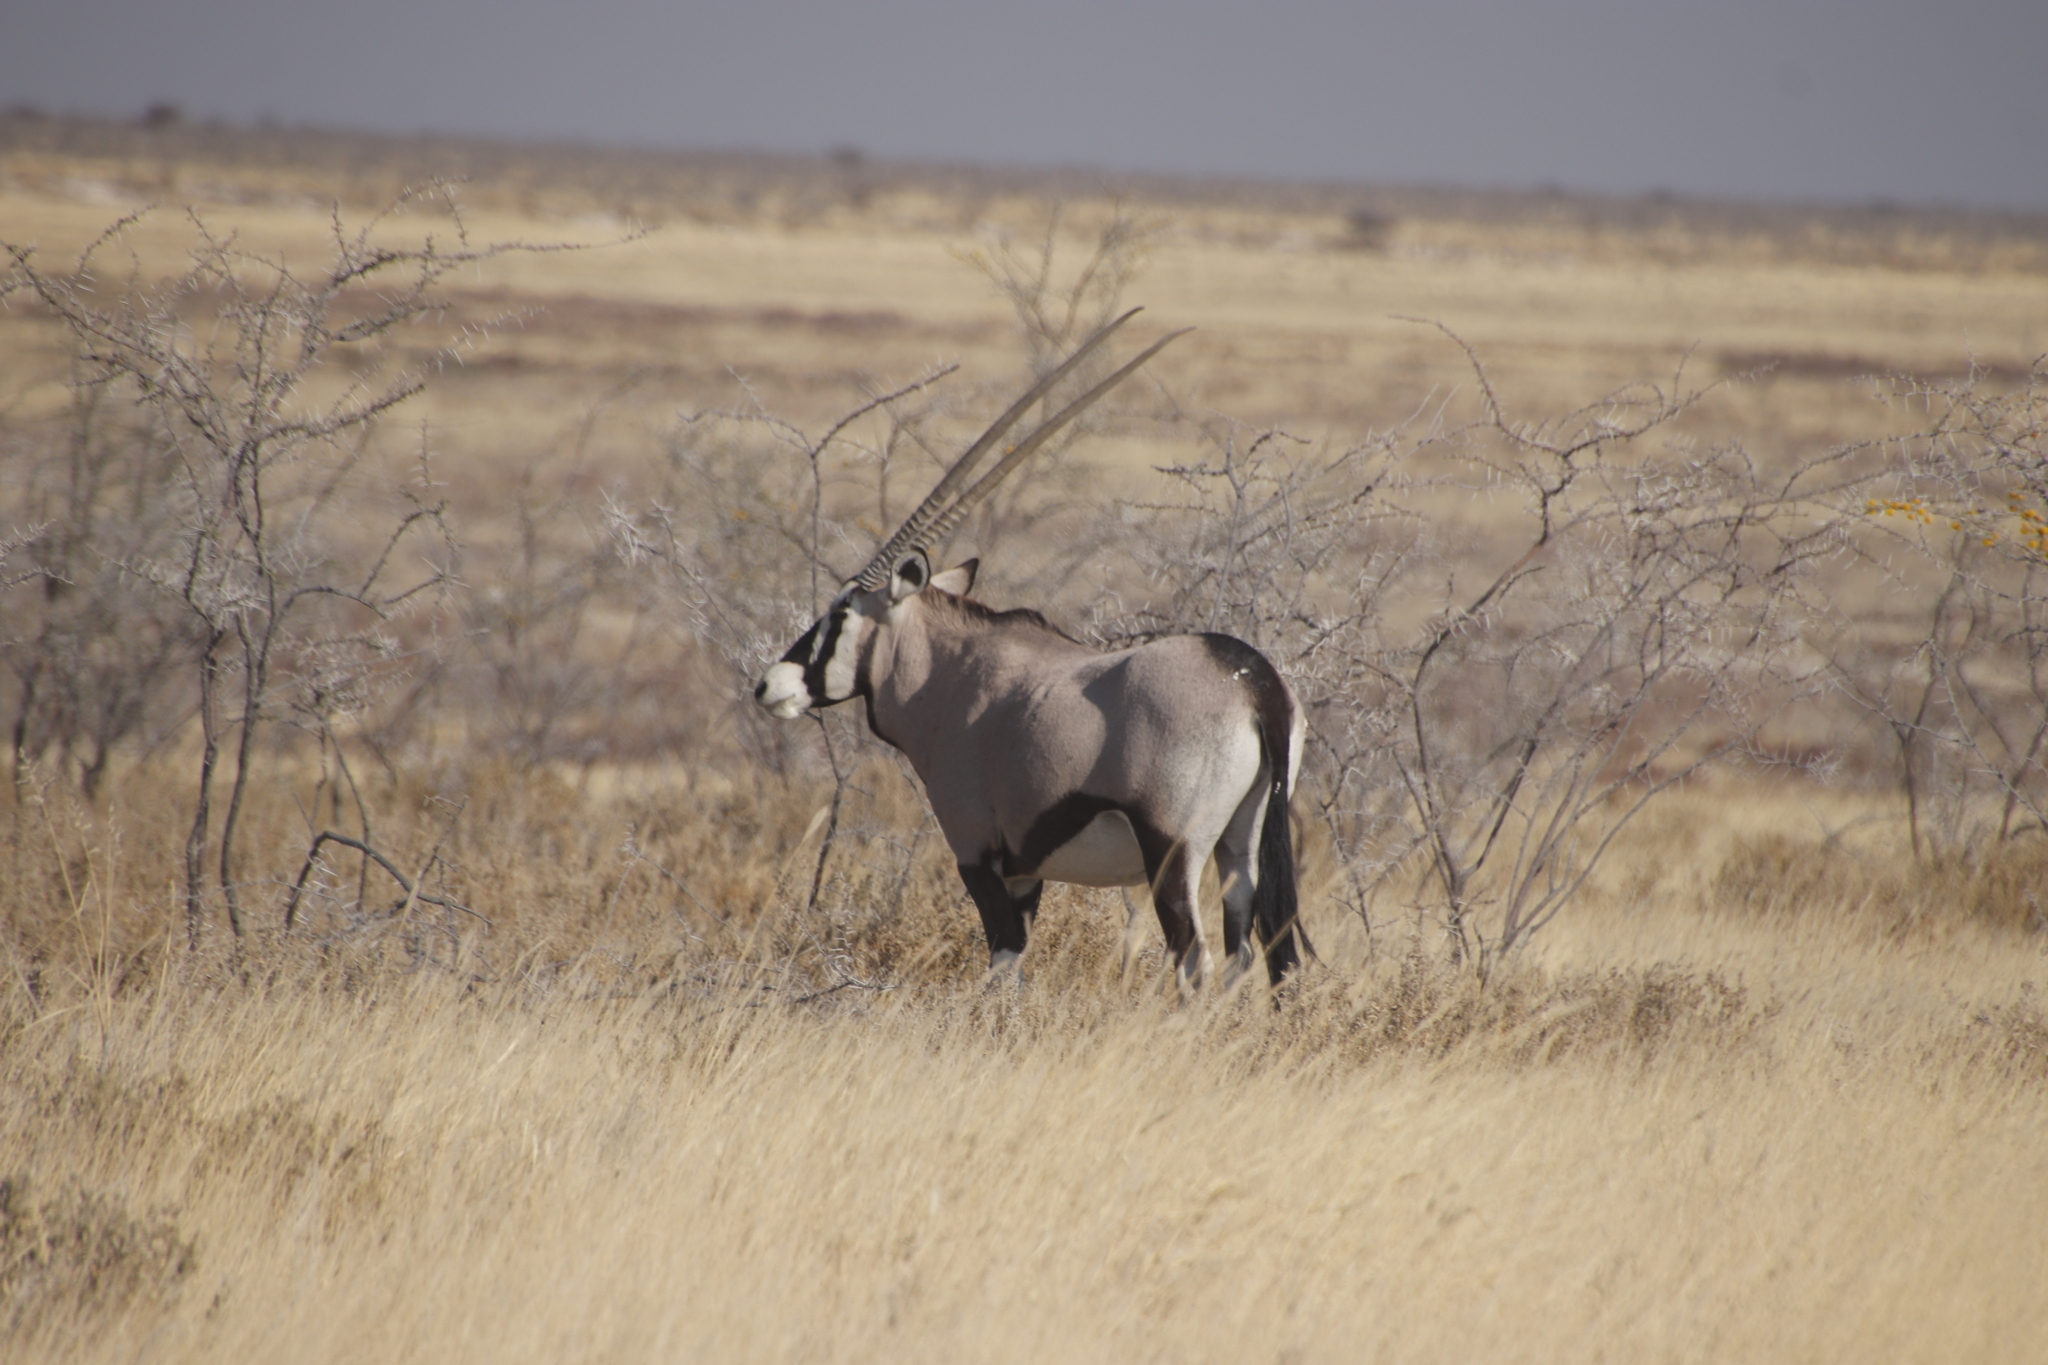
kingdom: Animalia
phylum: Chordata
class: Mammalia
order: Artiodactyla
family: Bovidae
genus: Oryx
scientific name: Oryx gazella
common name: Gemsbok
